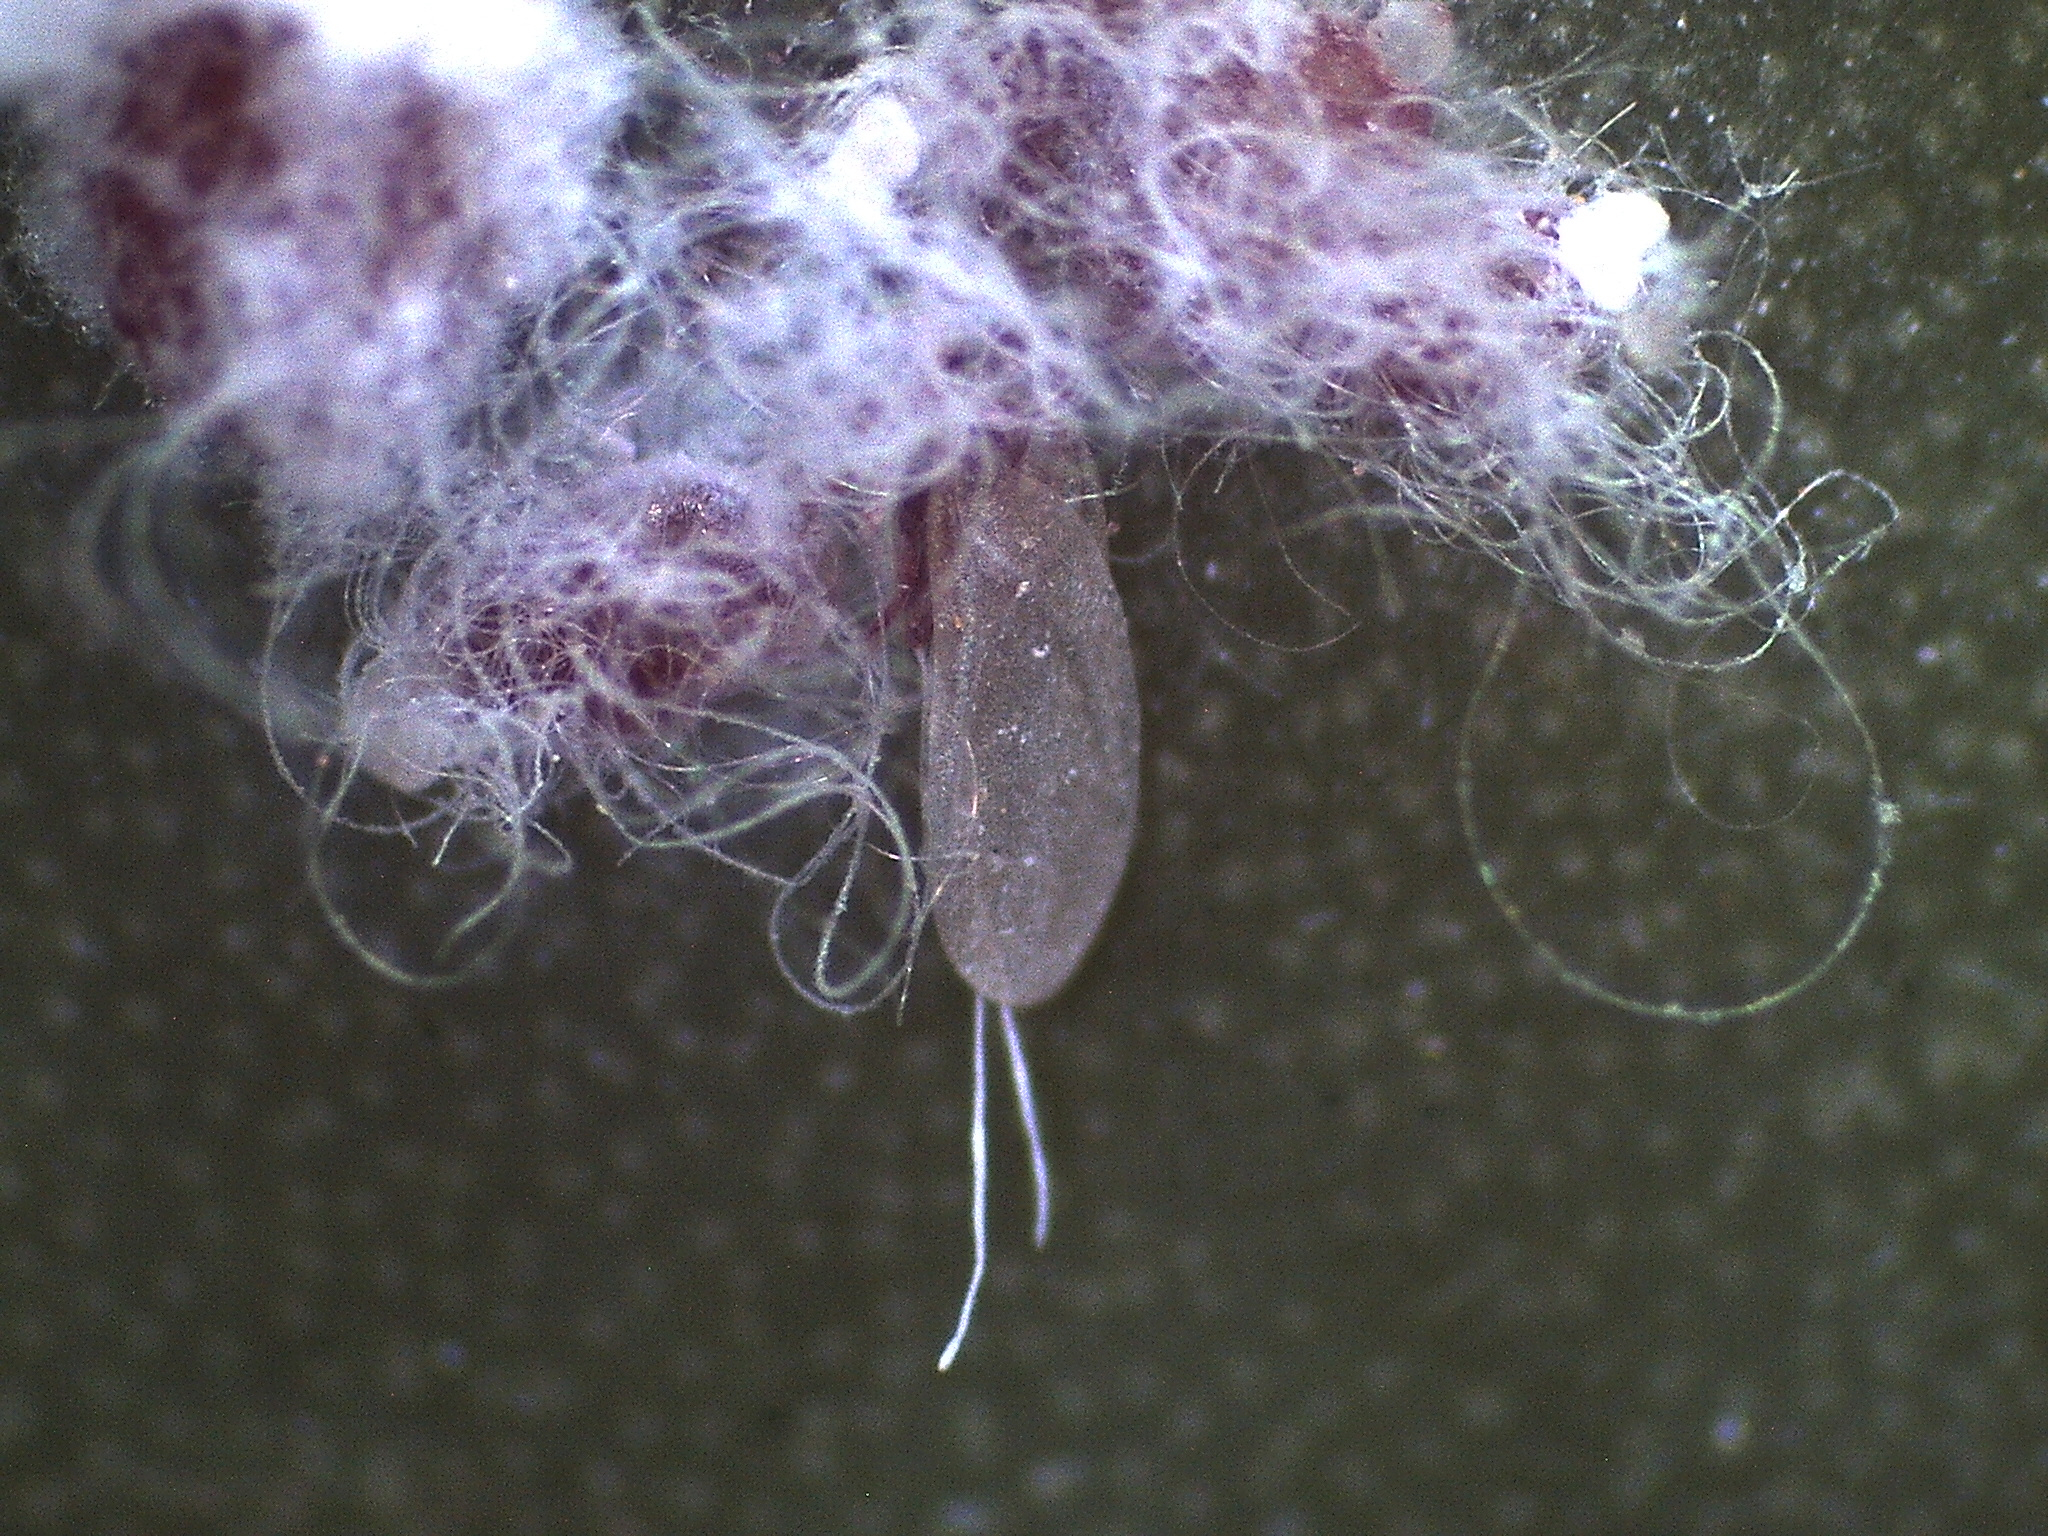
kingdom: Animalia
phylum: Arthropoda
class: Insecta
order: Hemiptera
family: Dactylopiidae
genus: Dactylopius
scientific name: Dactylopius opuntiae
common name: Opuntia cochineal scale
